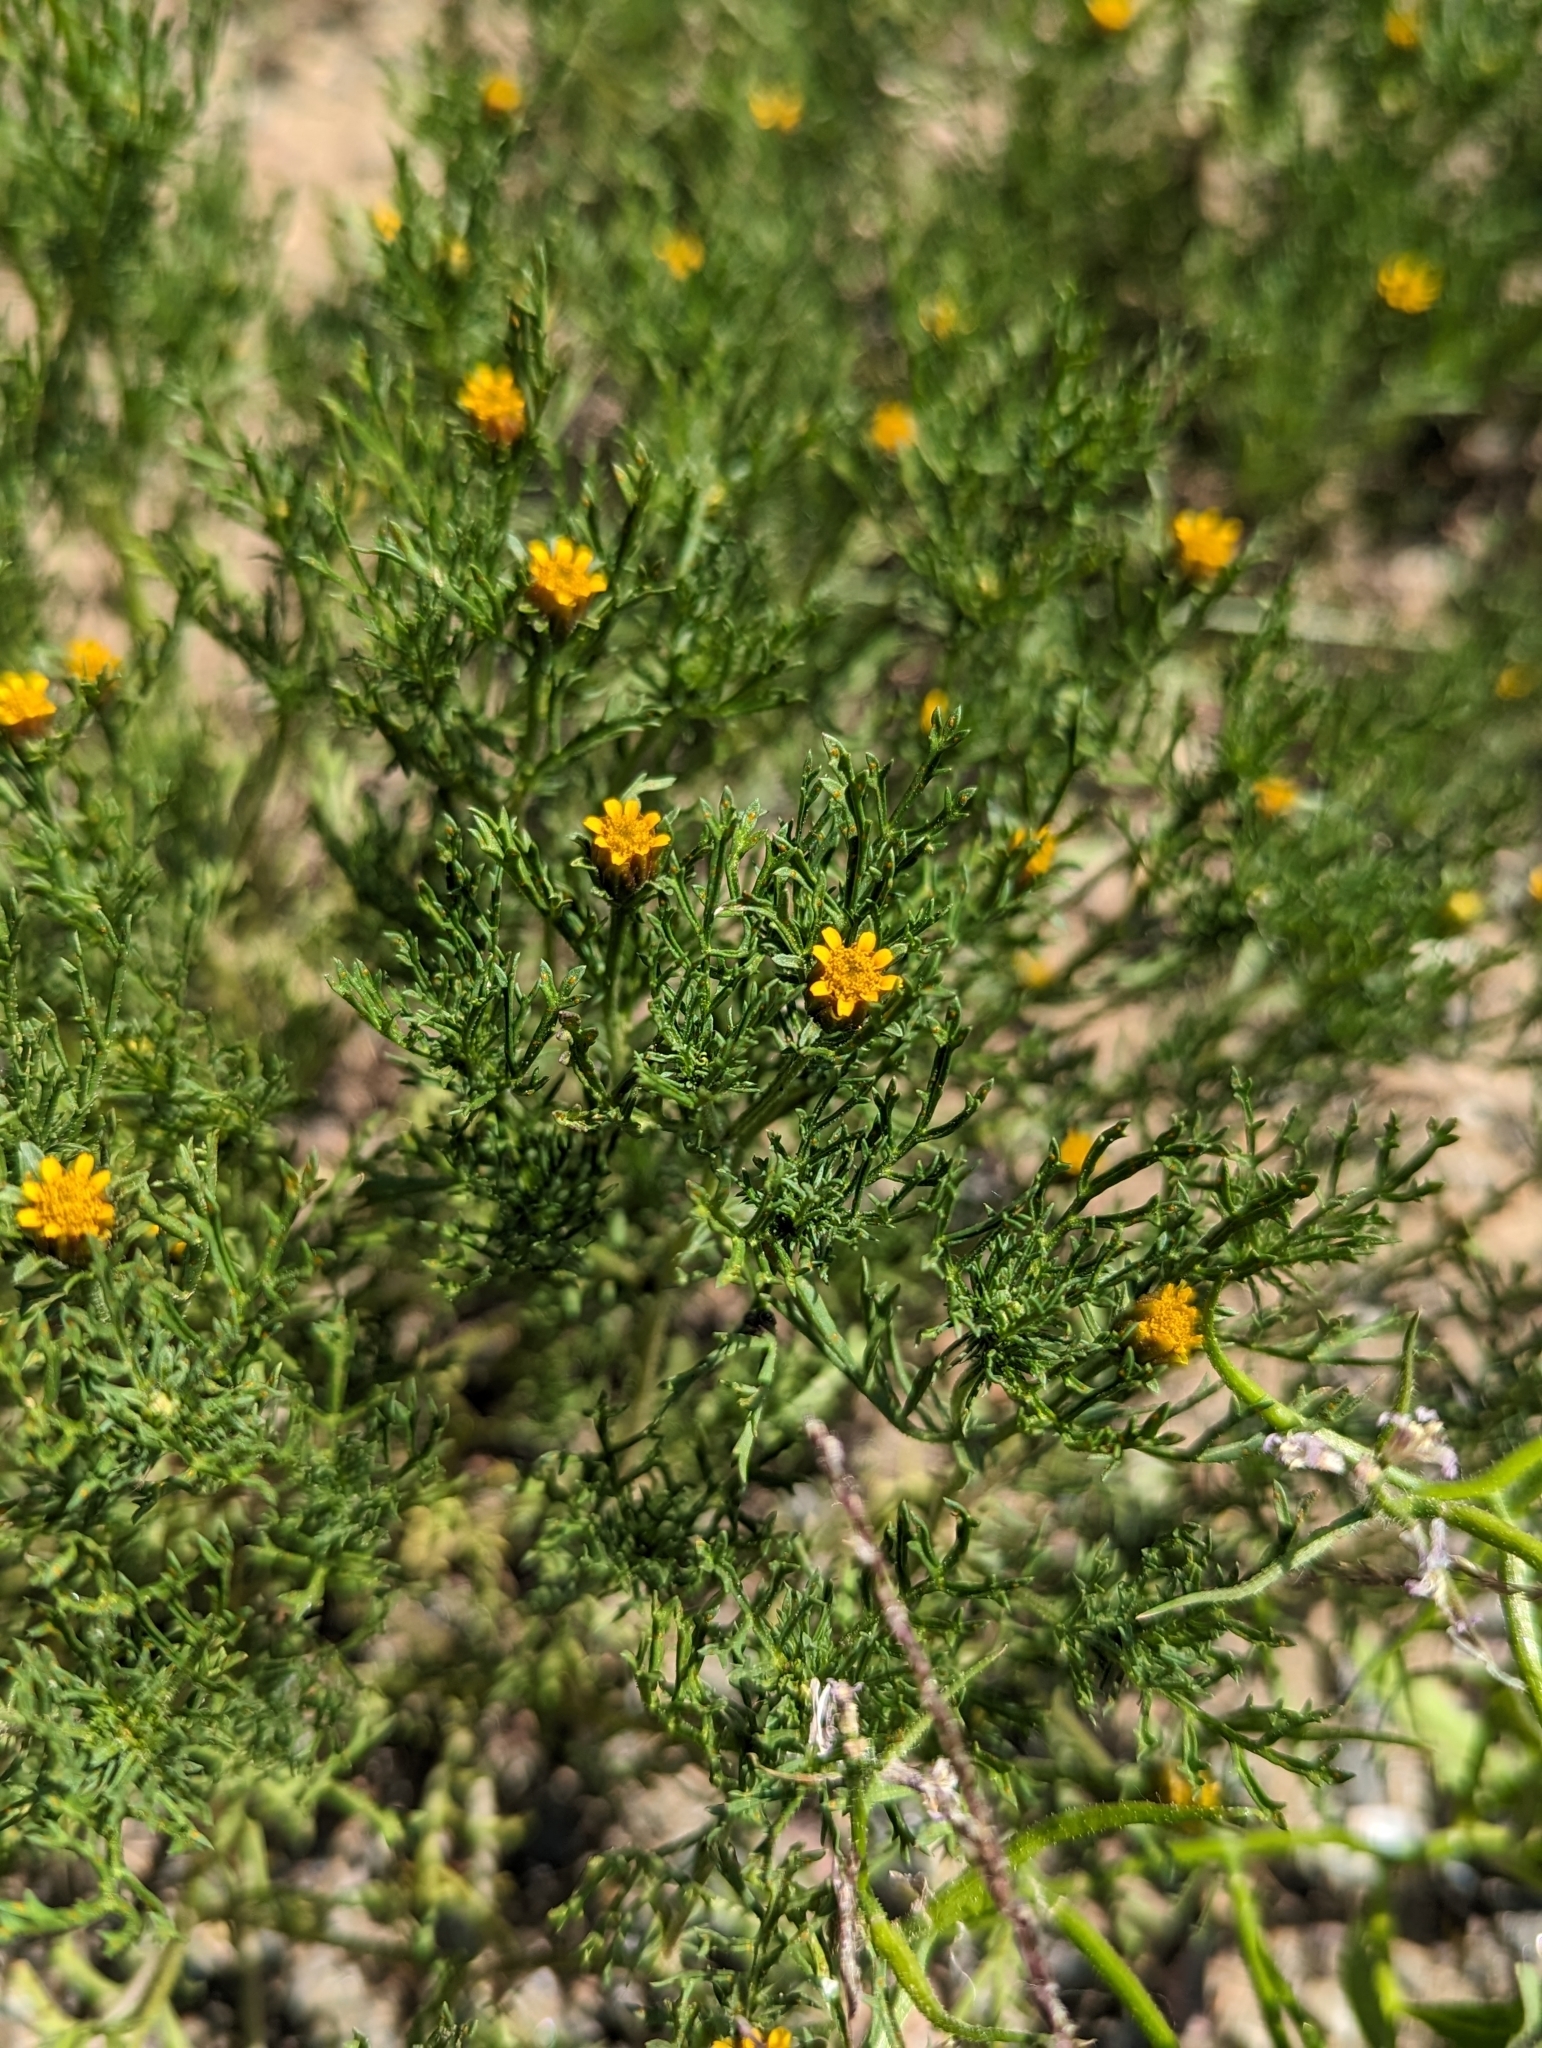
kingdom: Plantae
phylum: Tracheophyta
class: Magnoliopsida
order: Asterales
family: Asteraceae
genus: Dyssodia
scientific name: Dyssodia papposa
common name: Dogweed
